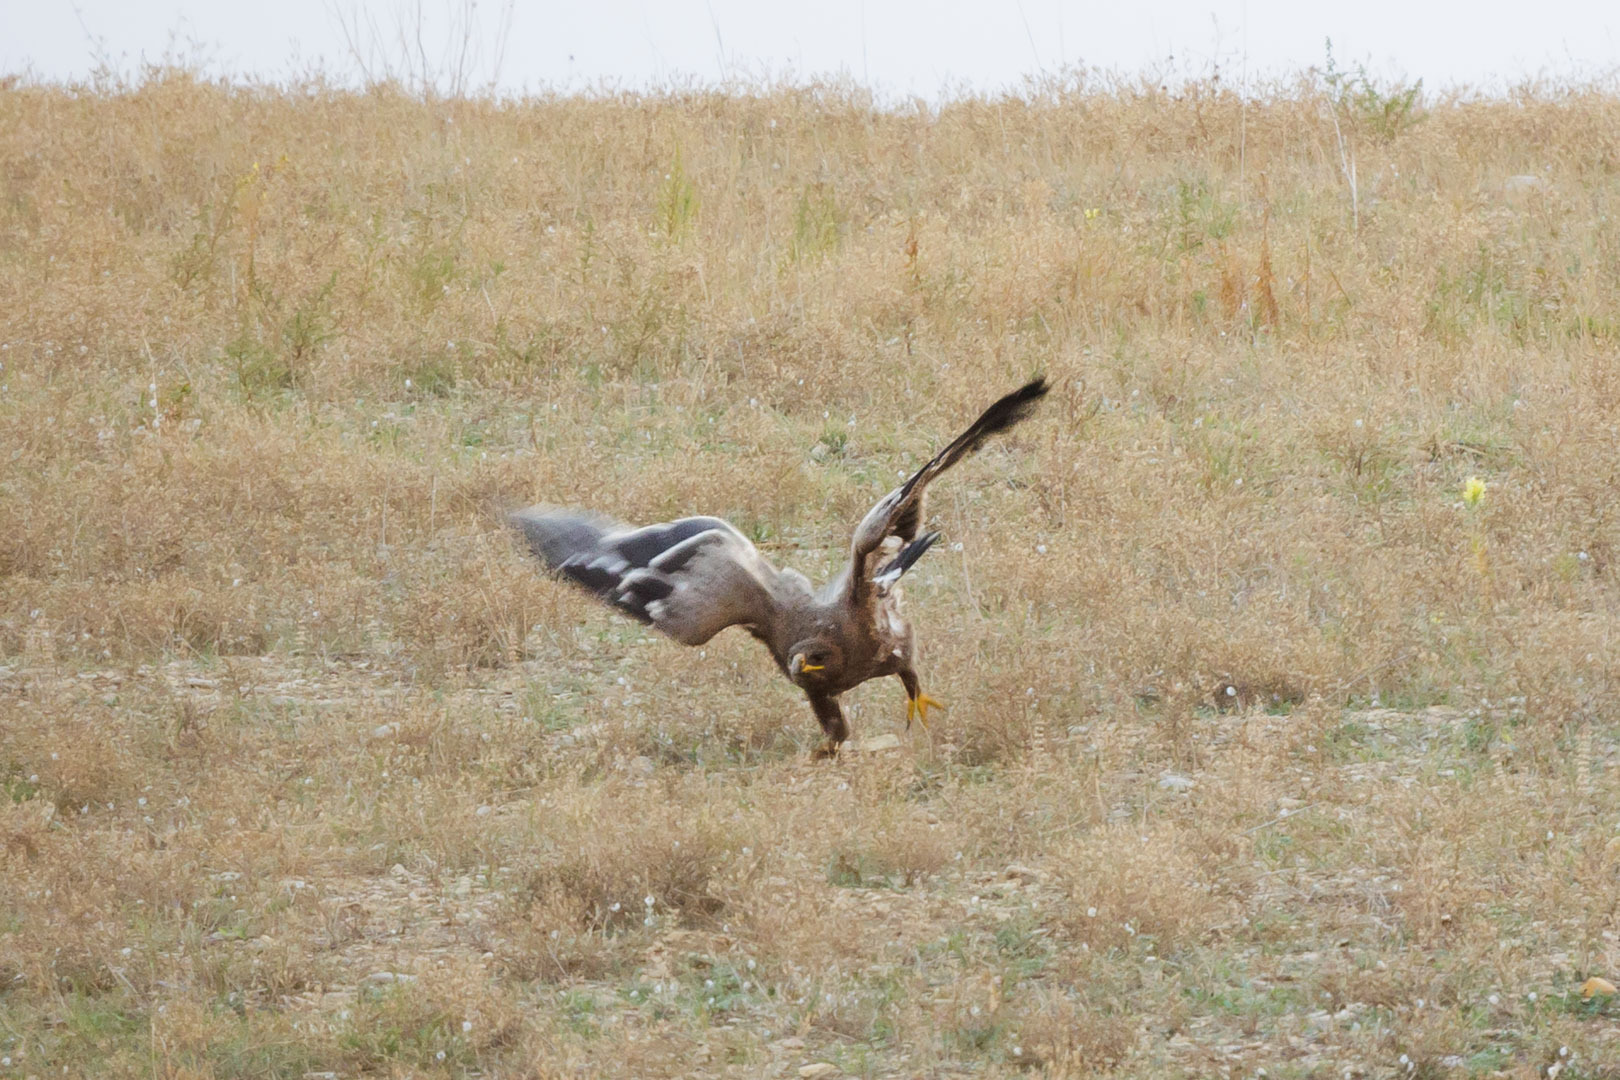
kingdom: Animalia
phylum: Chordata
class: Aves
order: Accipitriformes
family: Accipitridae
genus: Aquila
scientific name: Aquila nipalensis
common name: Steppe eagle
